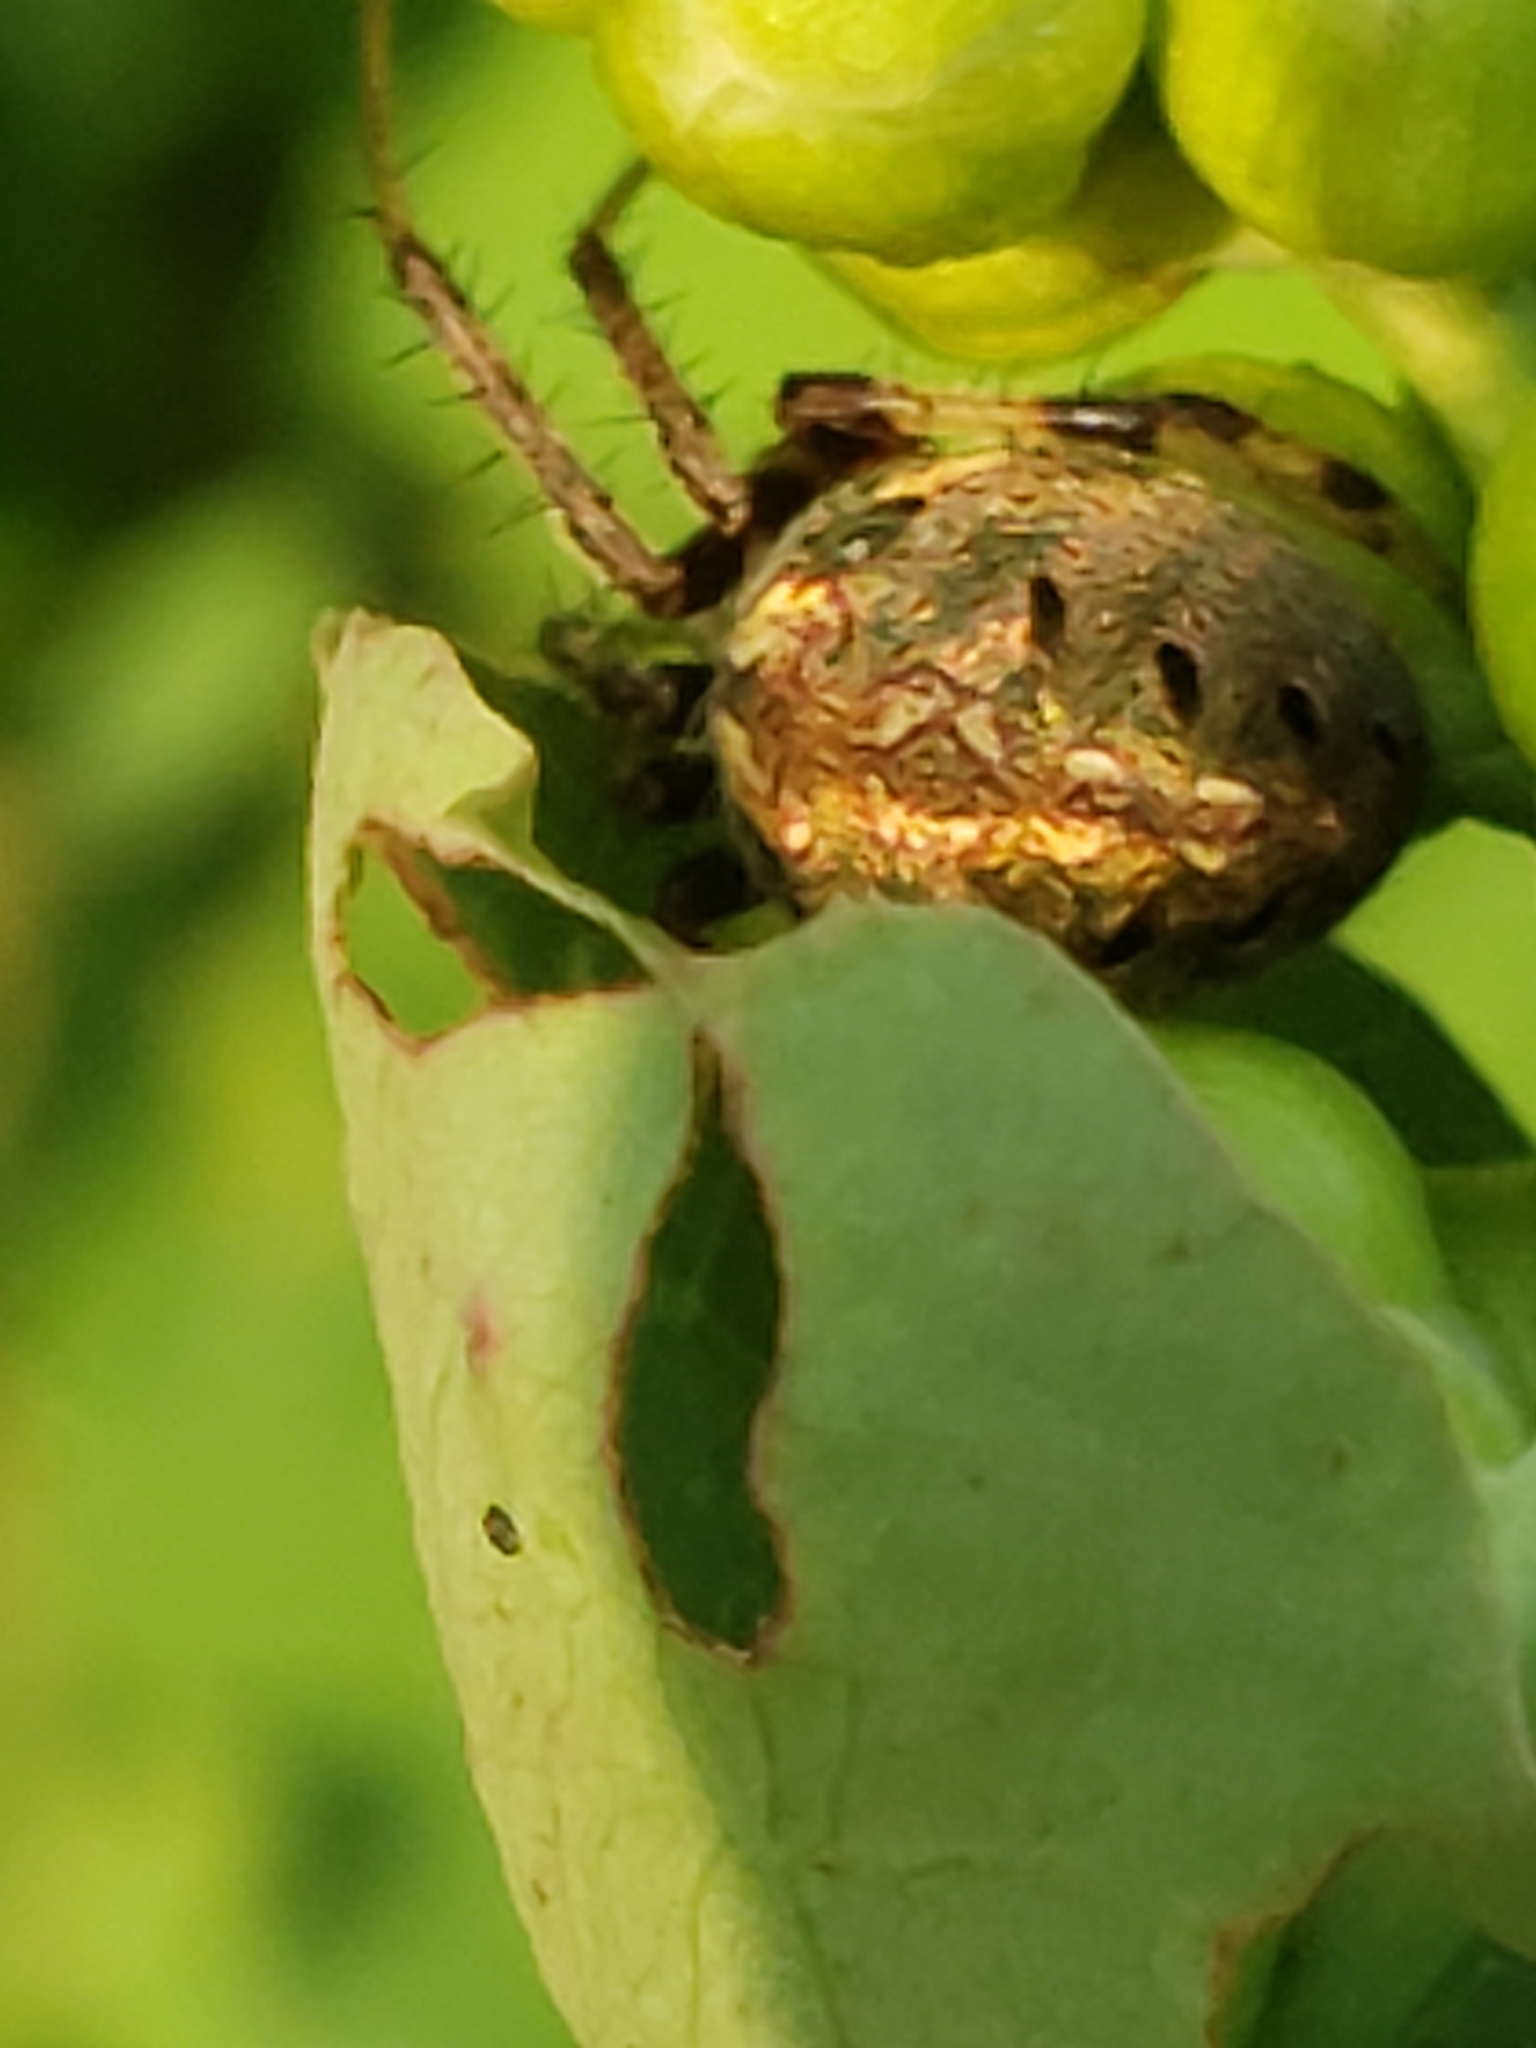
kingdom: Animalia
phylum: Arthropoda
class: Arachnida
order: Araneae
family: Araneidae
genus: Neoscona
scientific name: Neoscona arabesca
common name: Orb weavers
